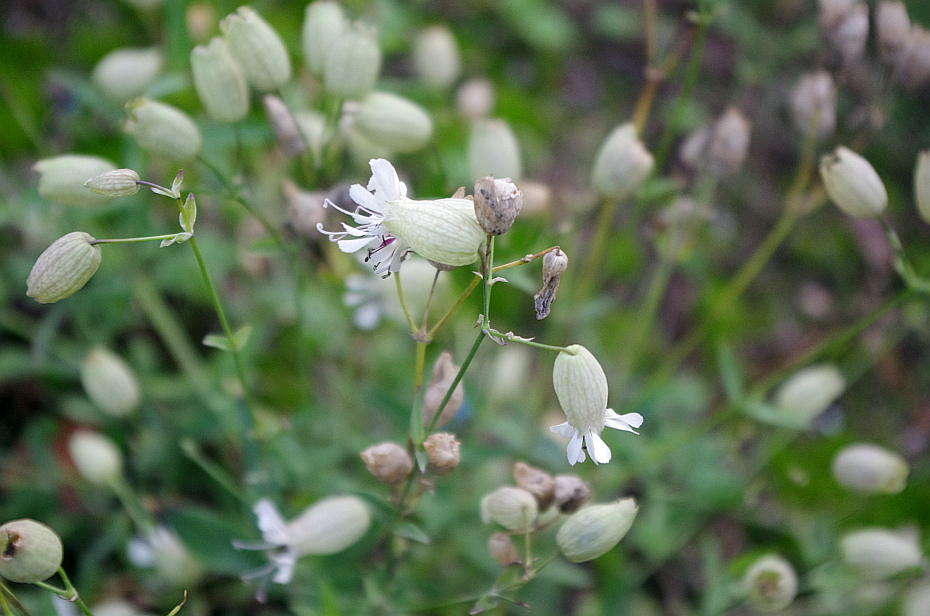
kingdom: Plantae
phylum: Tracheophyta
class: Magnoliopsida
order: Caryophyllales
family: Caryophyllaceae
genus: Silene
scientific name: Silene vulgaris
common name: Bladder campion
